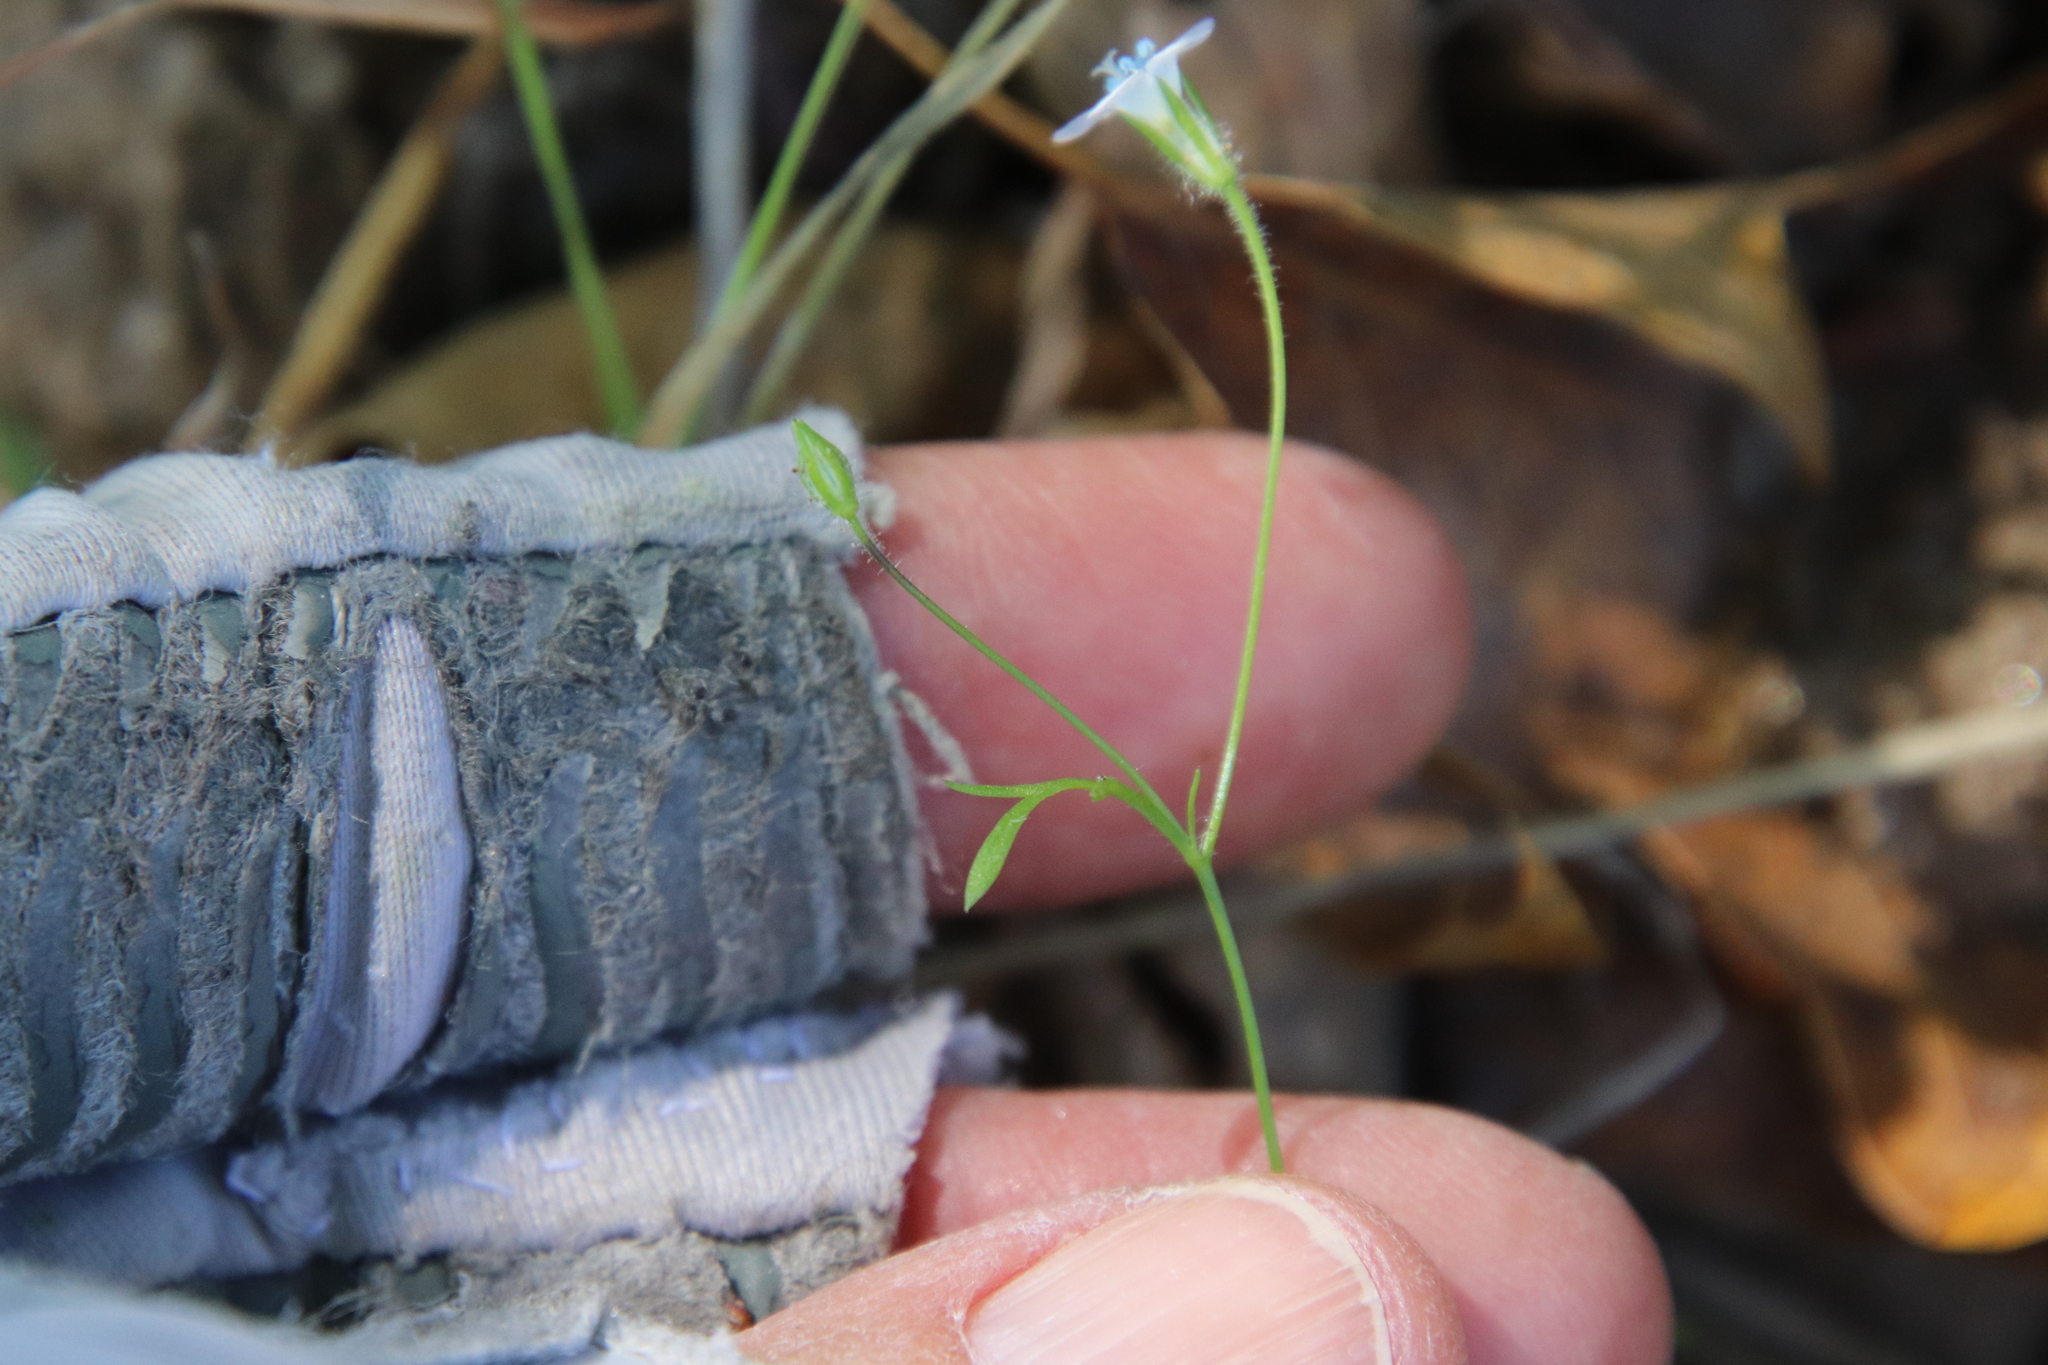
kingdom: Plantae
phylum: Tracheophyta
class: Magnoliopsida
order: Ericales
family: Polemoniaceae
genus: Gilia
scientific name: Gilia angelensis
